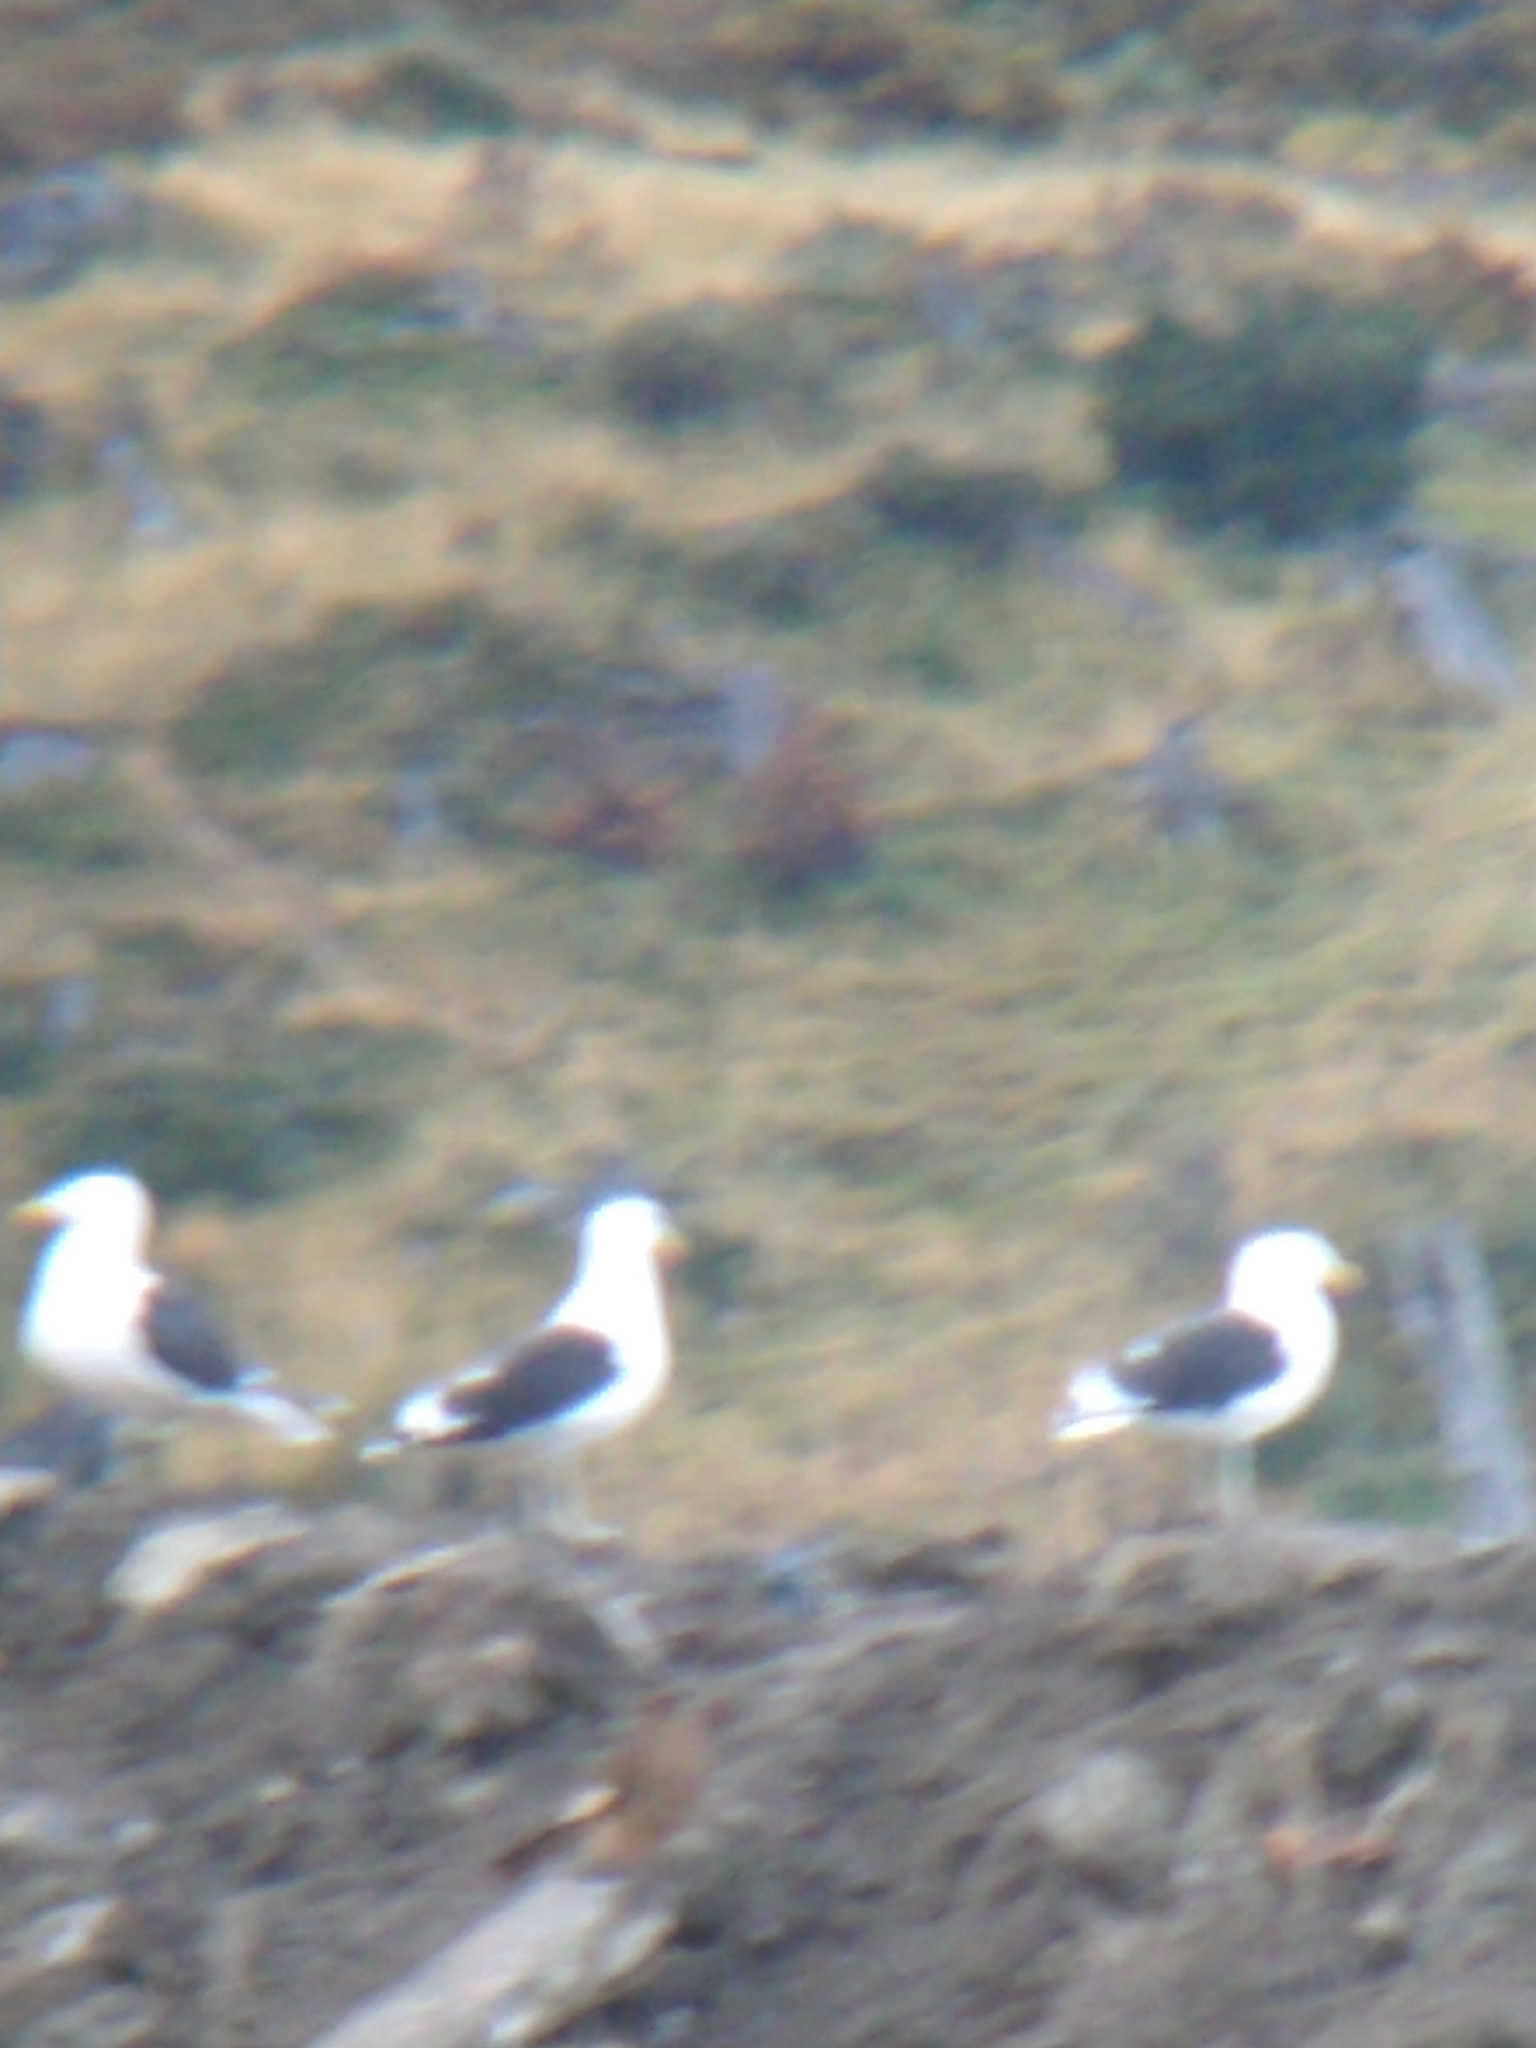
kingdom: Animalia
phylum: Chordata
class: Aves
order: Charadriiformes
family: Laridae
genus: Larus
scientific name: Larus dominicanus
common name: Kelp gull
